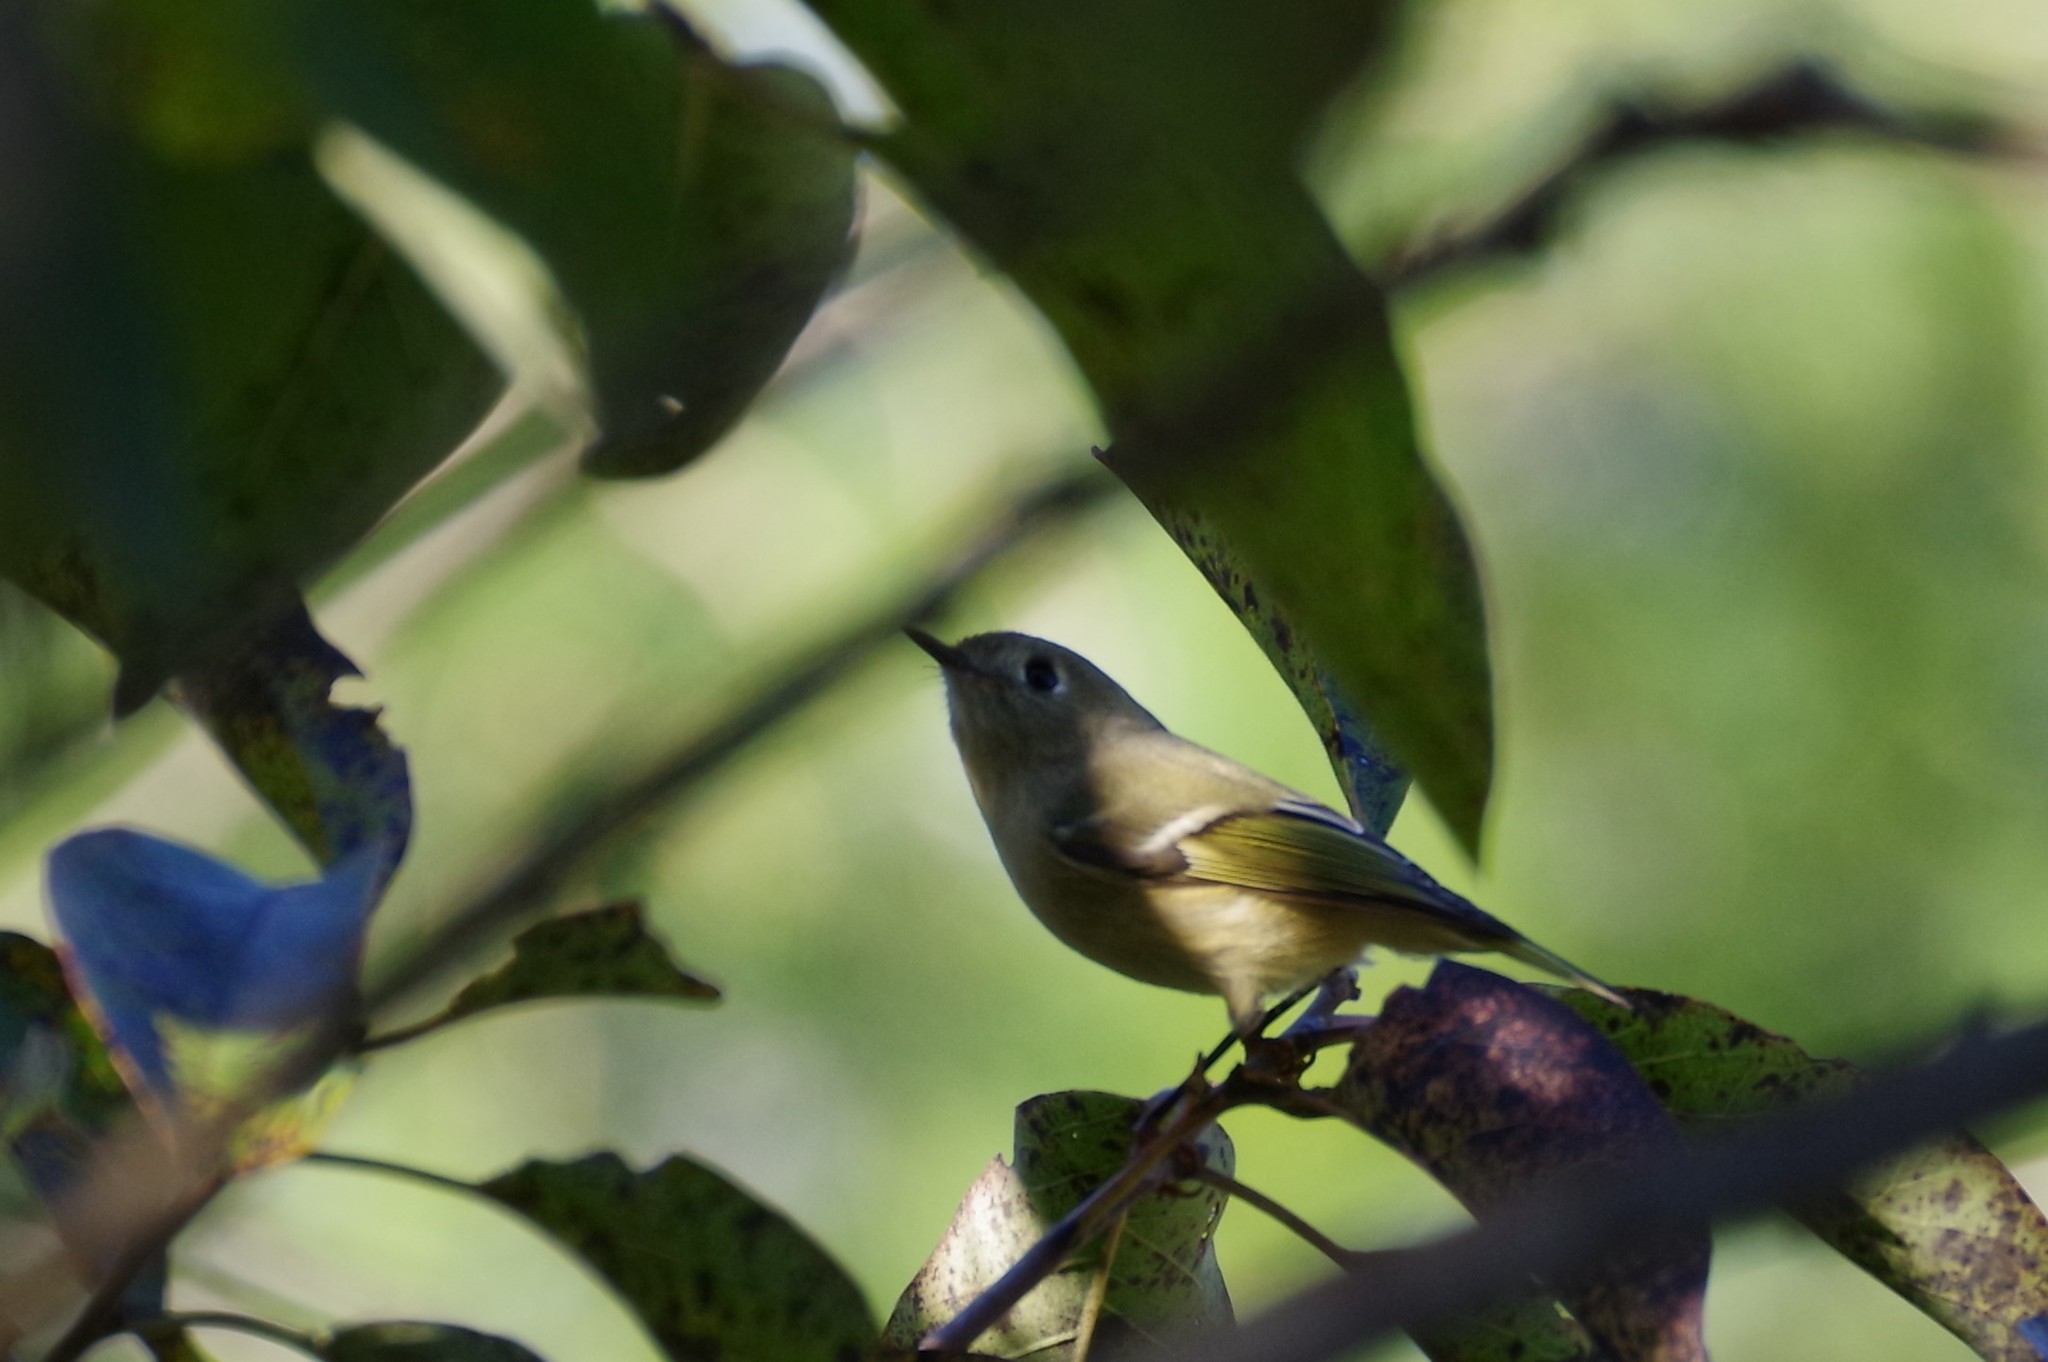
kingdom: Animalia
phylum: Chordata
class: Aves
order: Passeriformes
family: Regulidae
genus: Regulus
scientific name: Regulus calendula
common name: Ruby-crowned kinglet
